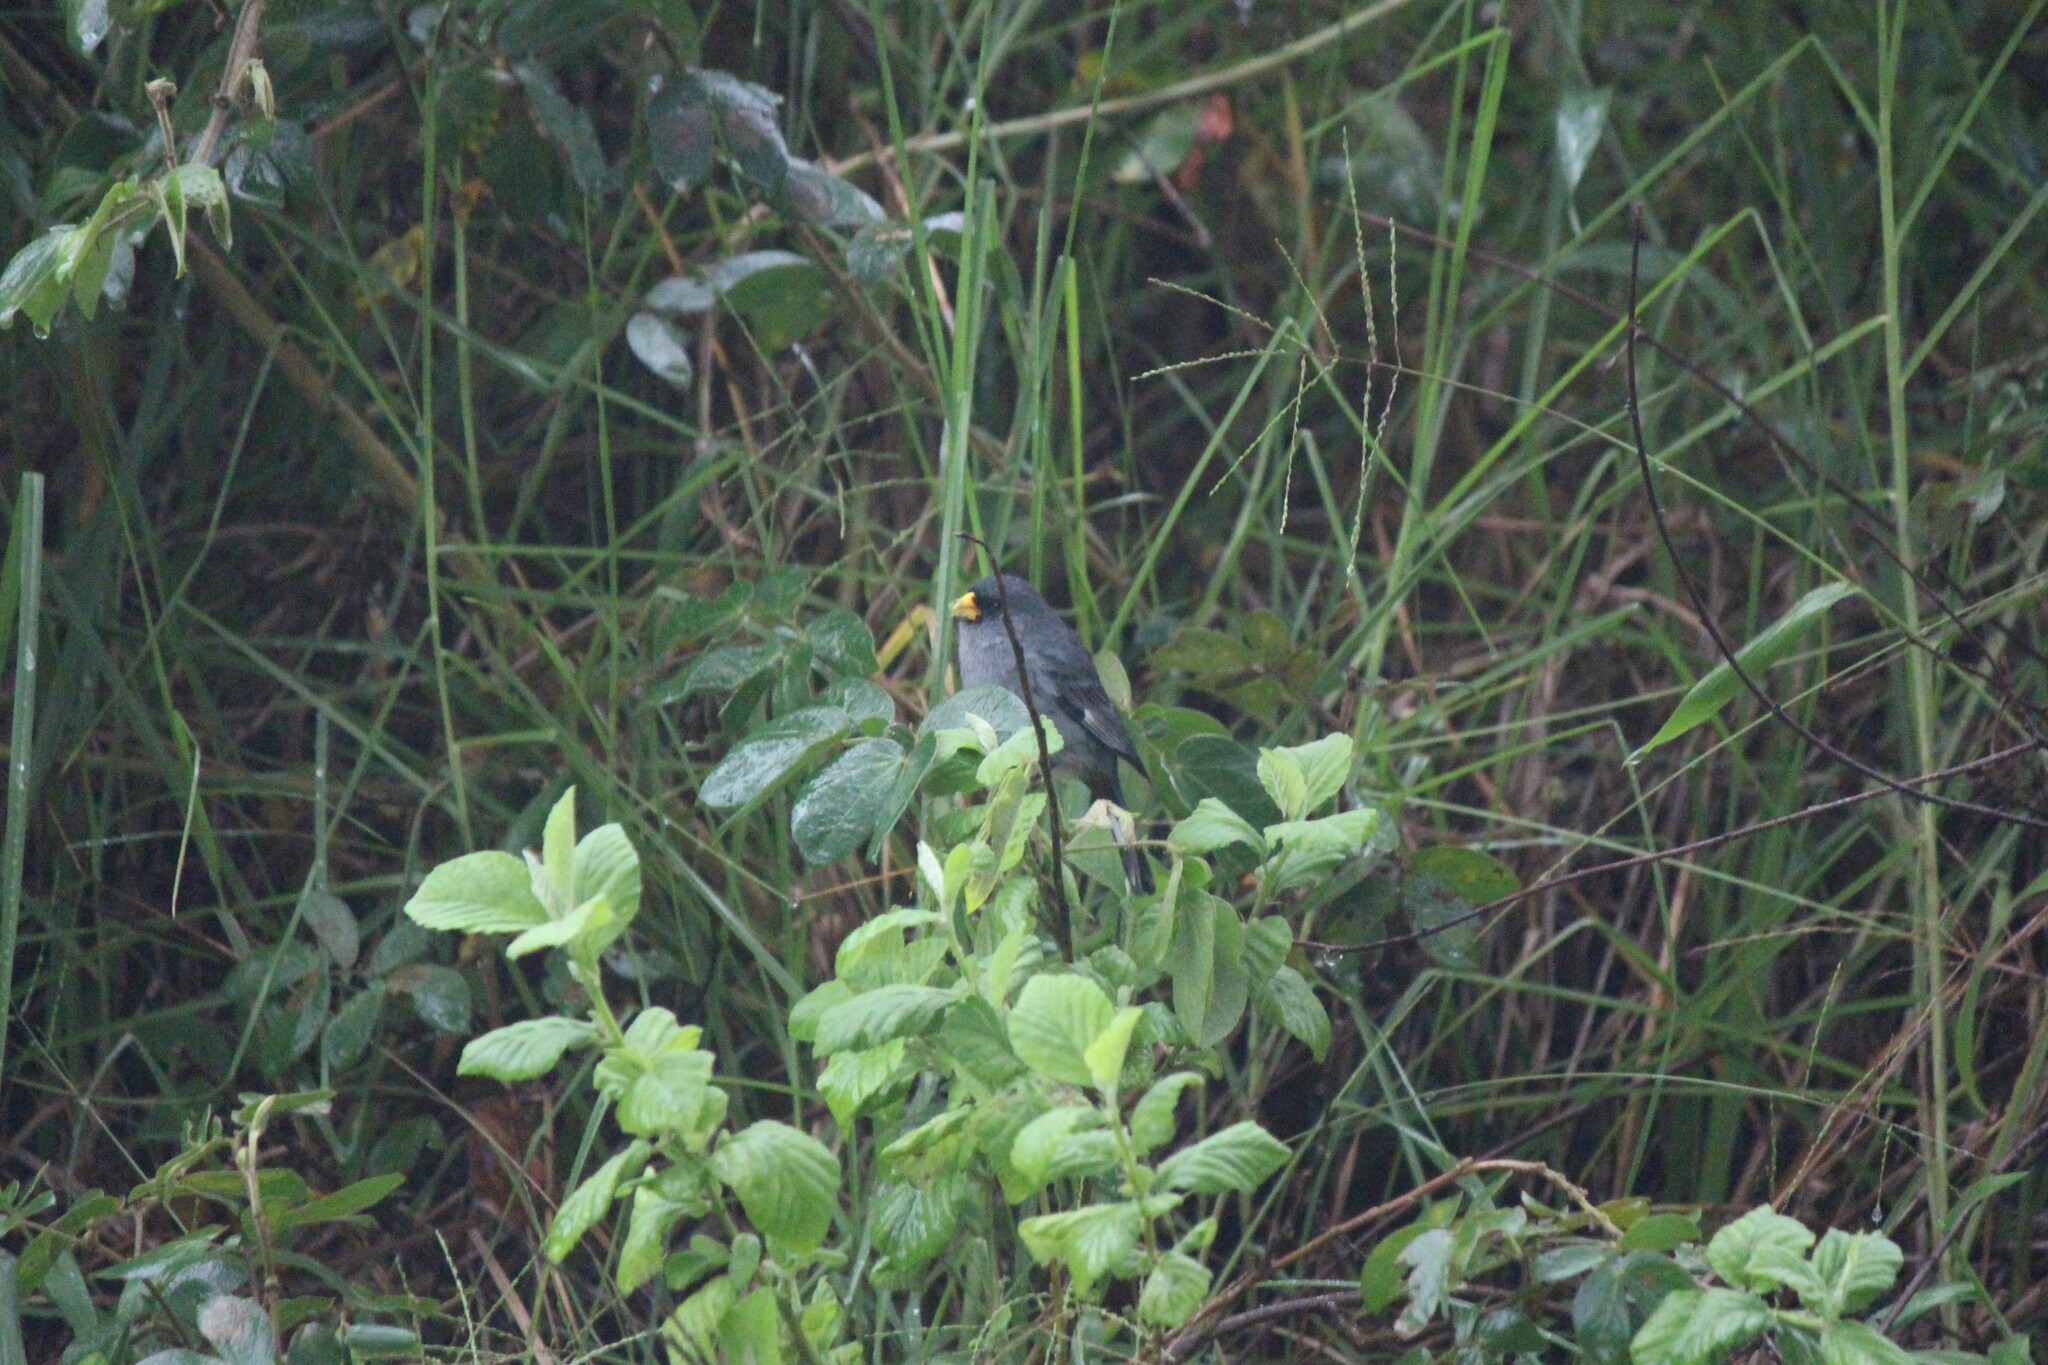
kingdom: Animalia
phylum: Chordata
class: Aves
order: Passeriformes
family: Thraupidae
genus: Catamenia
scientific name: Catamenia analis
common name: Band-tailed seedeater
